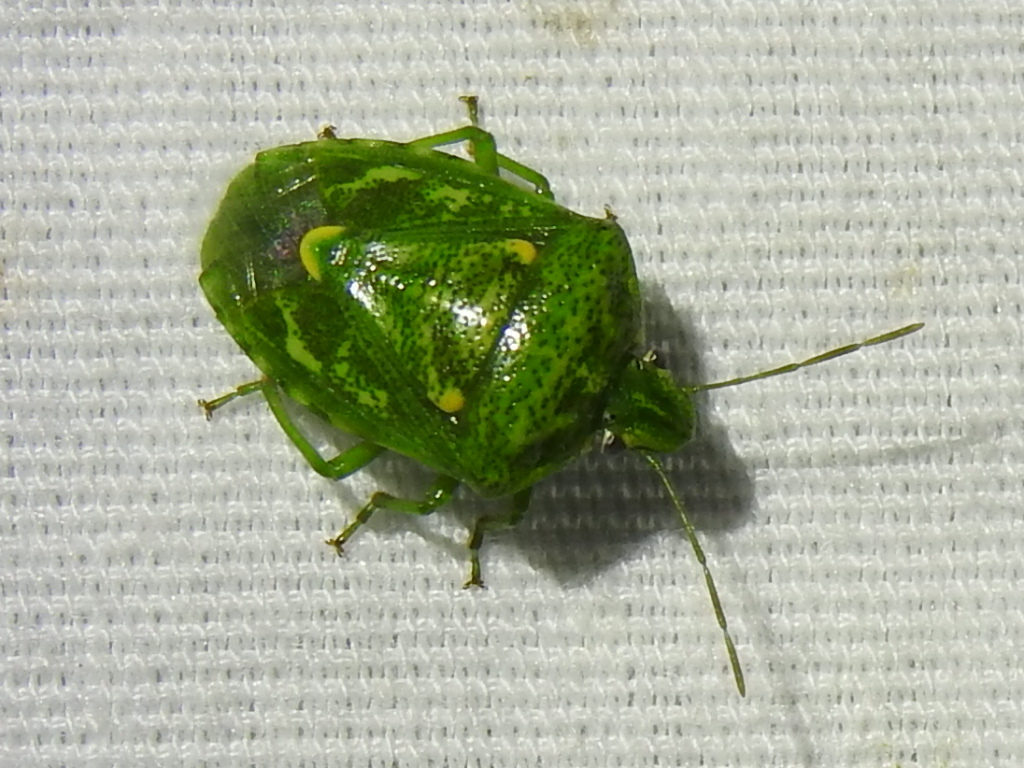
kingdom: Animalia
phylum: Arthropoda
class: Insecta
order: Hemiptera
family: Pentatomidae
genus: Banasa
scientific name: Banasa euchlora
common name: Cedar berry bug
